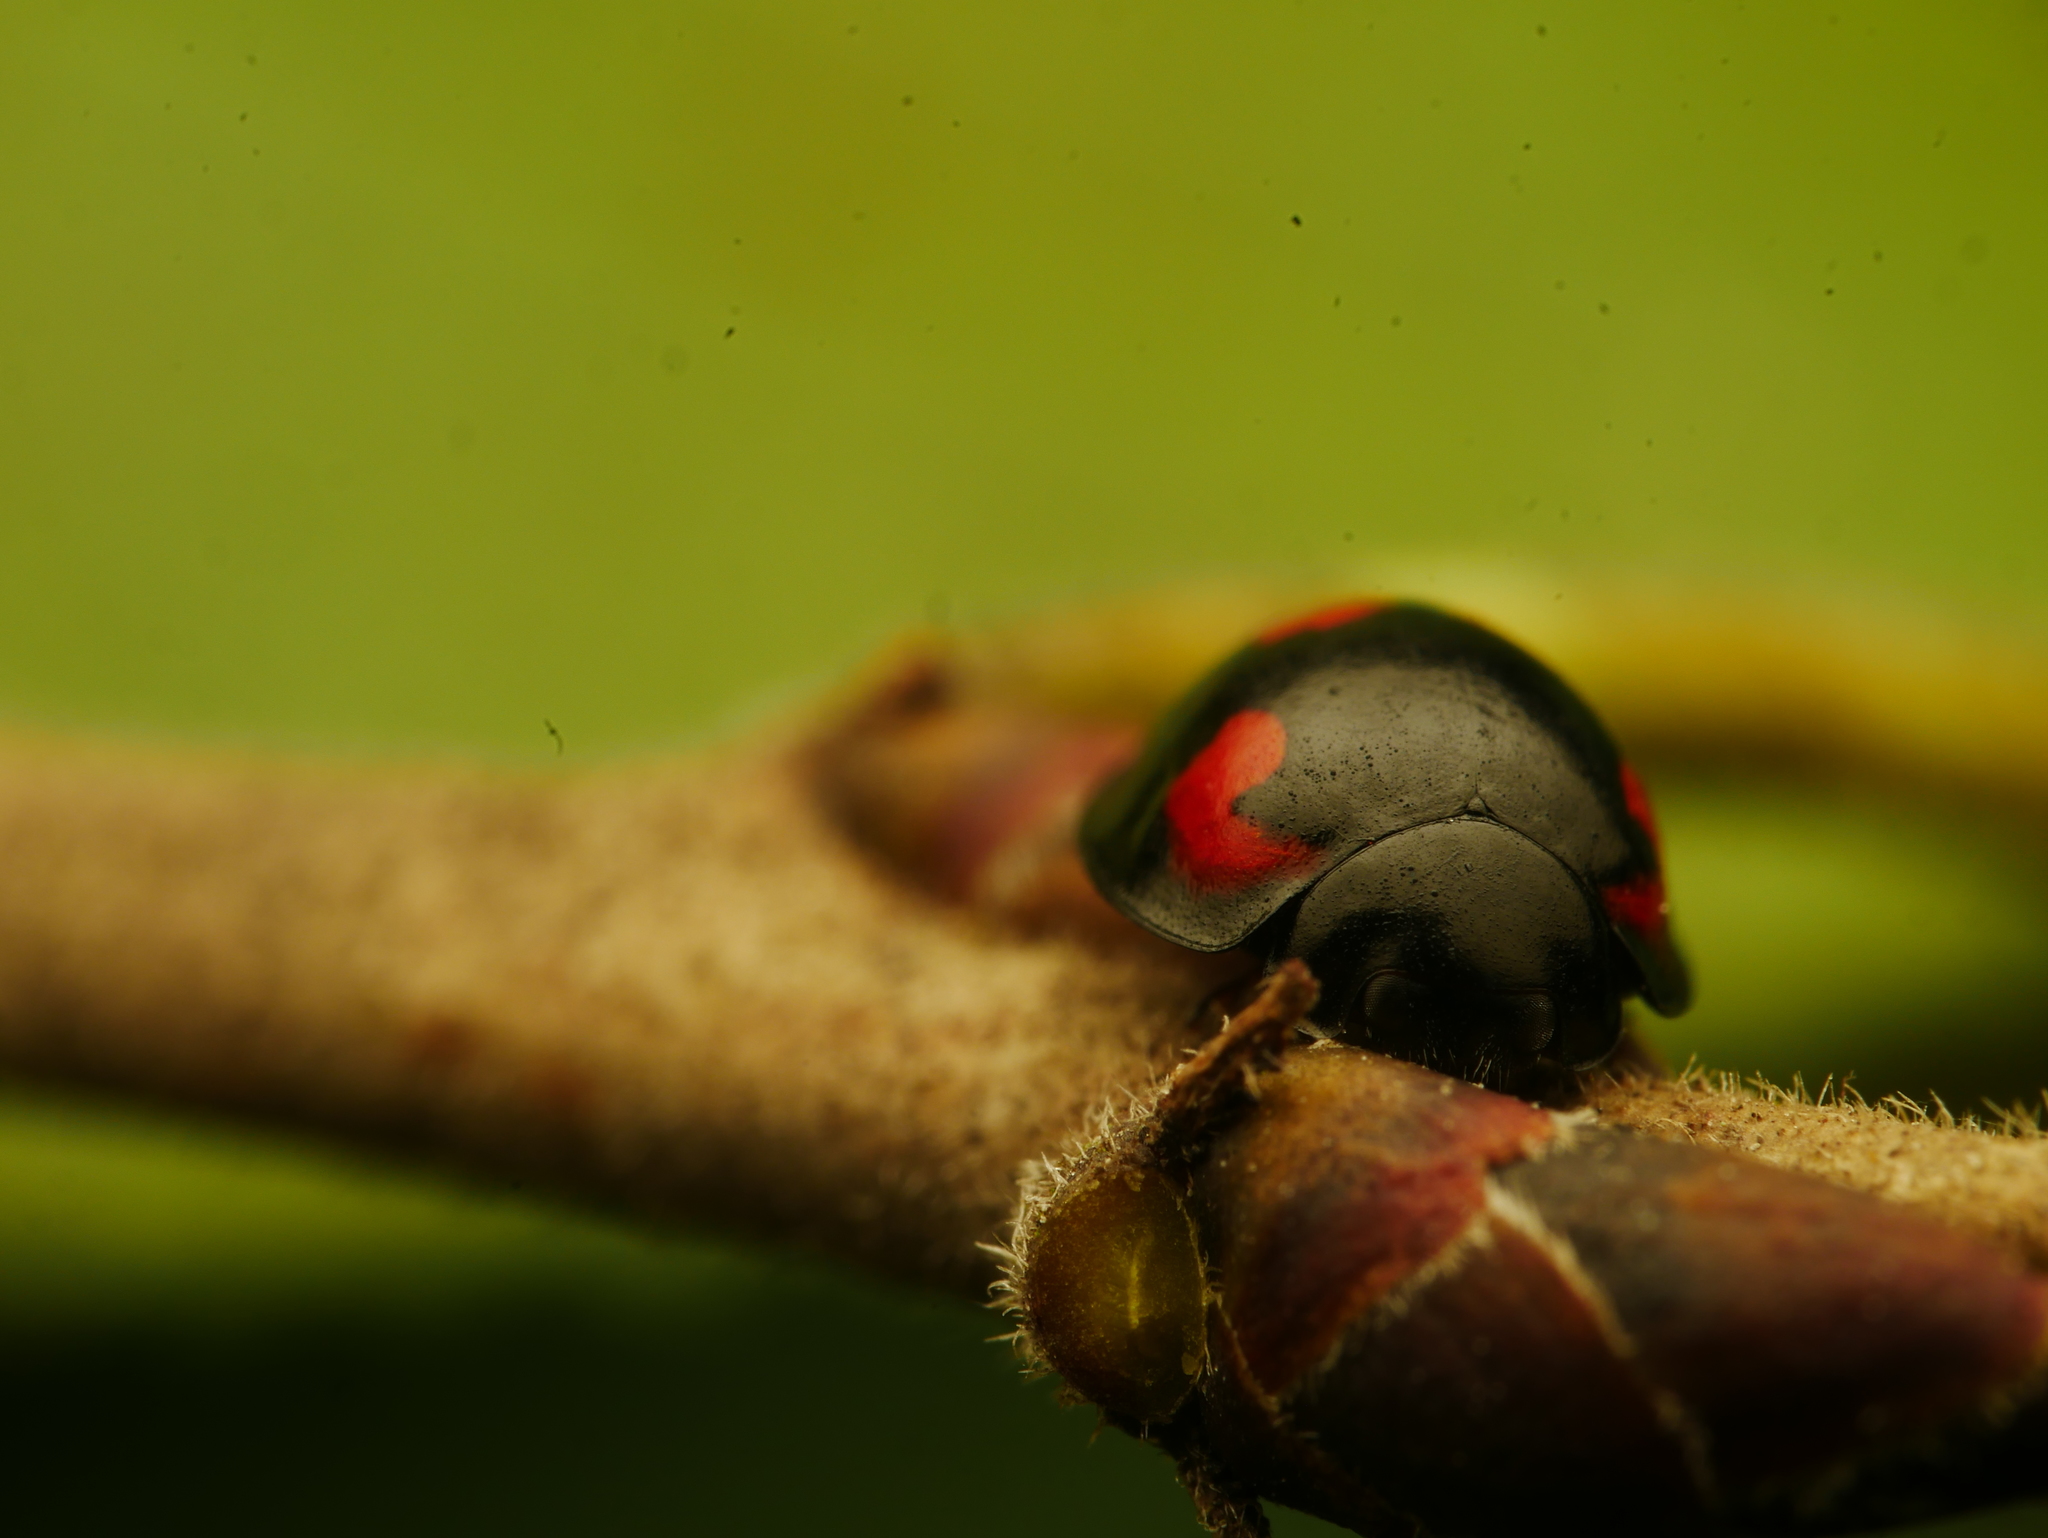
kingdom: Animalia
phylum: Arthropoda
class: Insecta
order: Coleoptera
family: Coccinellidae
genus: Brumus
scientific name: Brumus quadripustulatus
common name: Ladybird beetle
